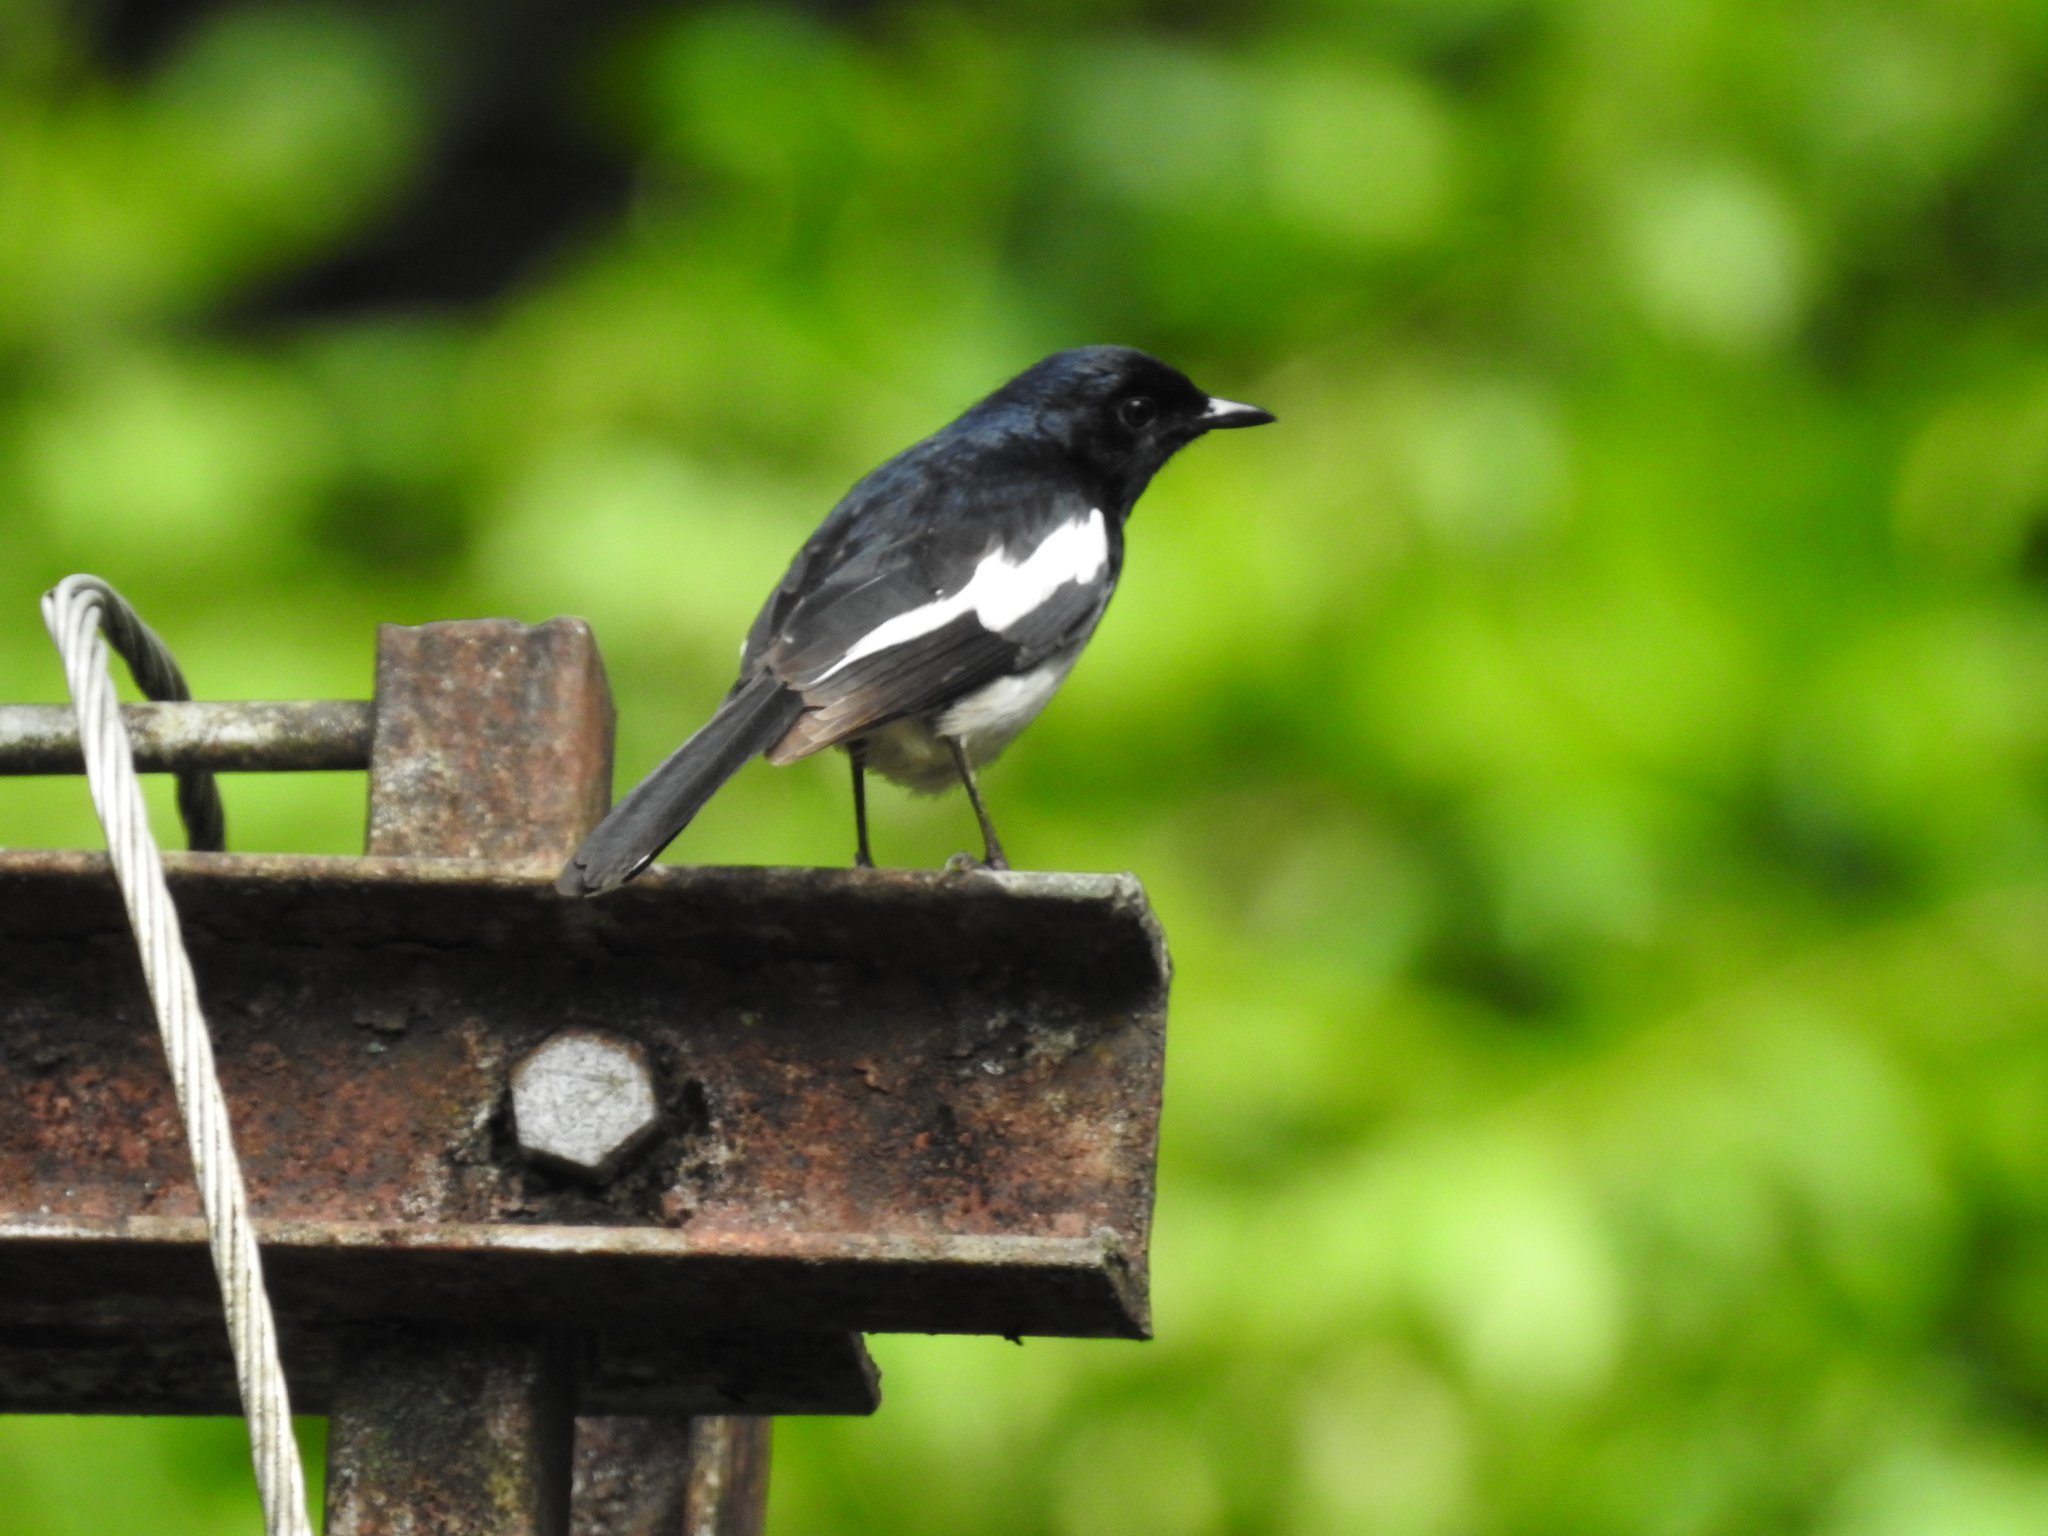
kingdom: Animalia
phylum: Chordata
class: Aves
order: Passeriformes
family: Muscicapidae
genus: Copsychus
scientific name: Copsychus saularis
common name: Oriental magpie-robin
